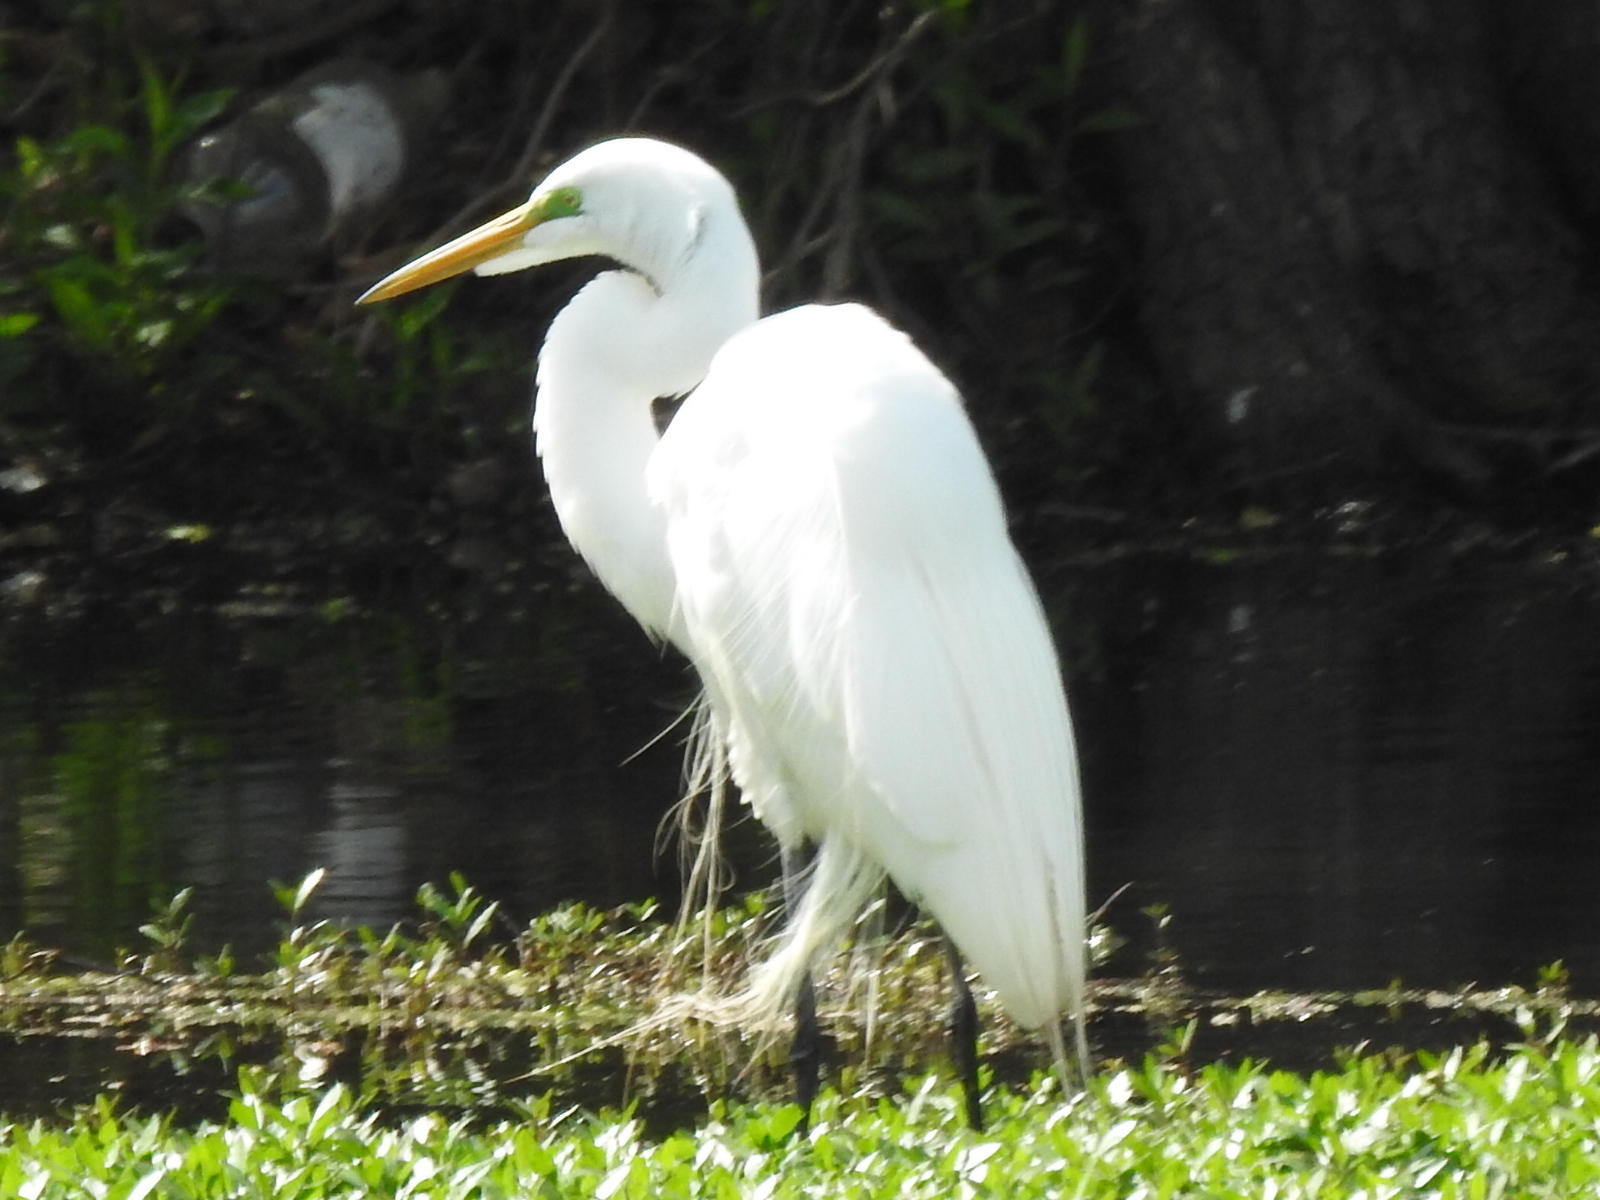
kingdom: Animalia
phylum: Chordata
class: Aves
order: Pelecaniformes
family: Ardeidae
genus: Ardea
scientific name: Ardea alba
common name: Great egret
